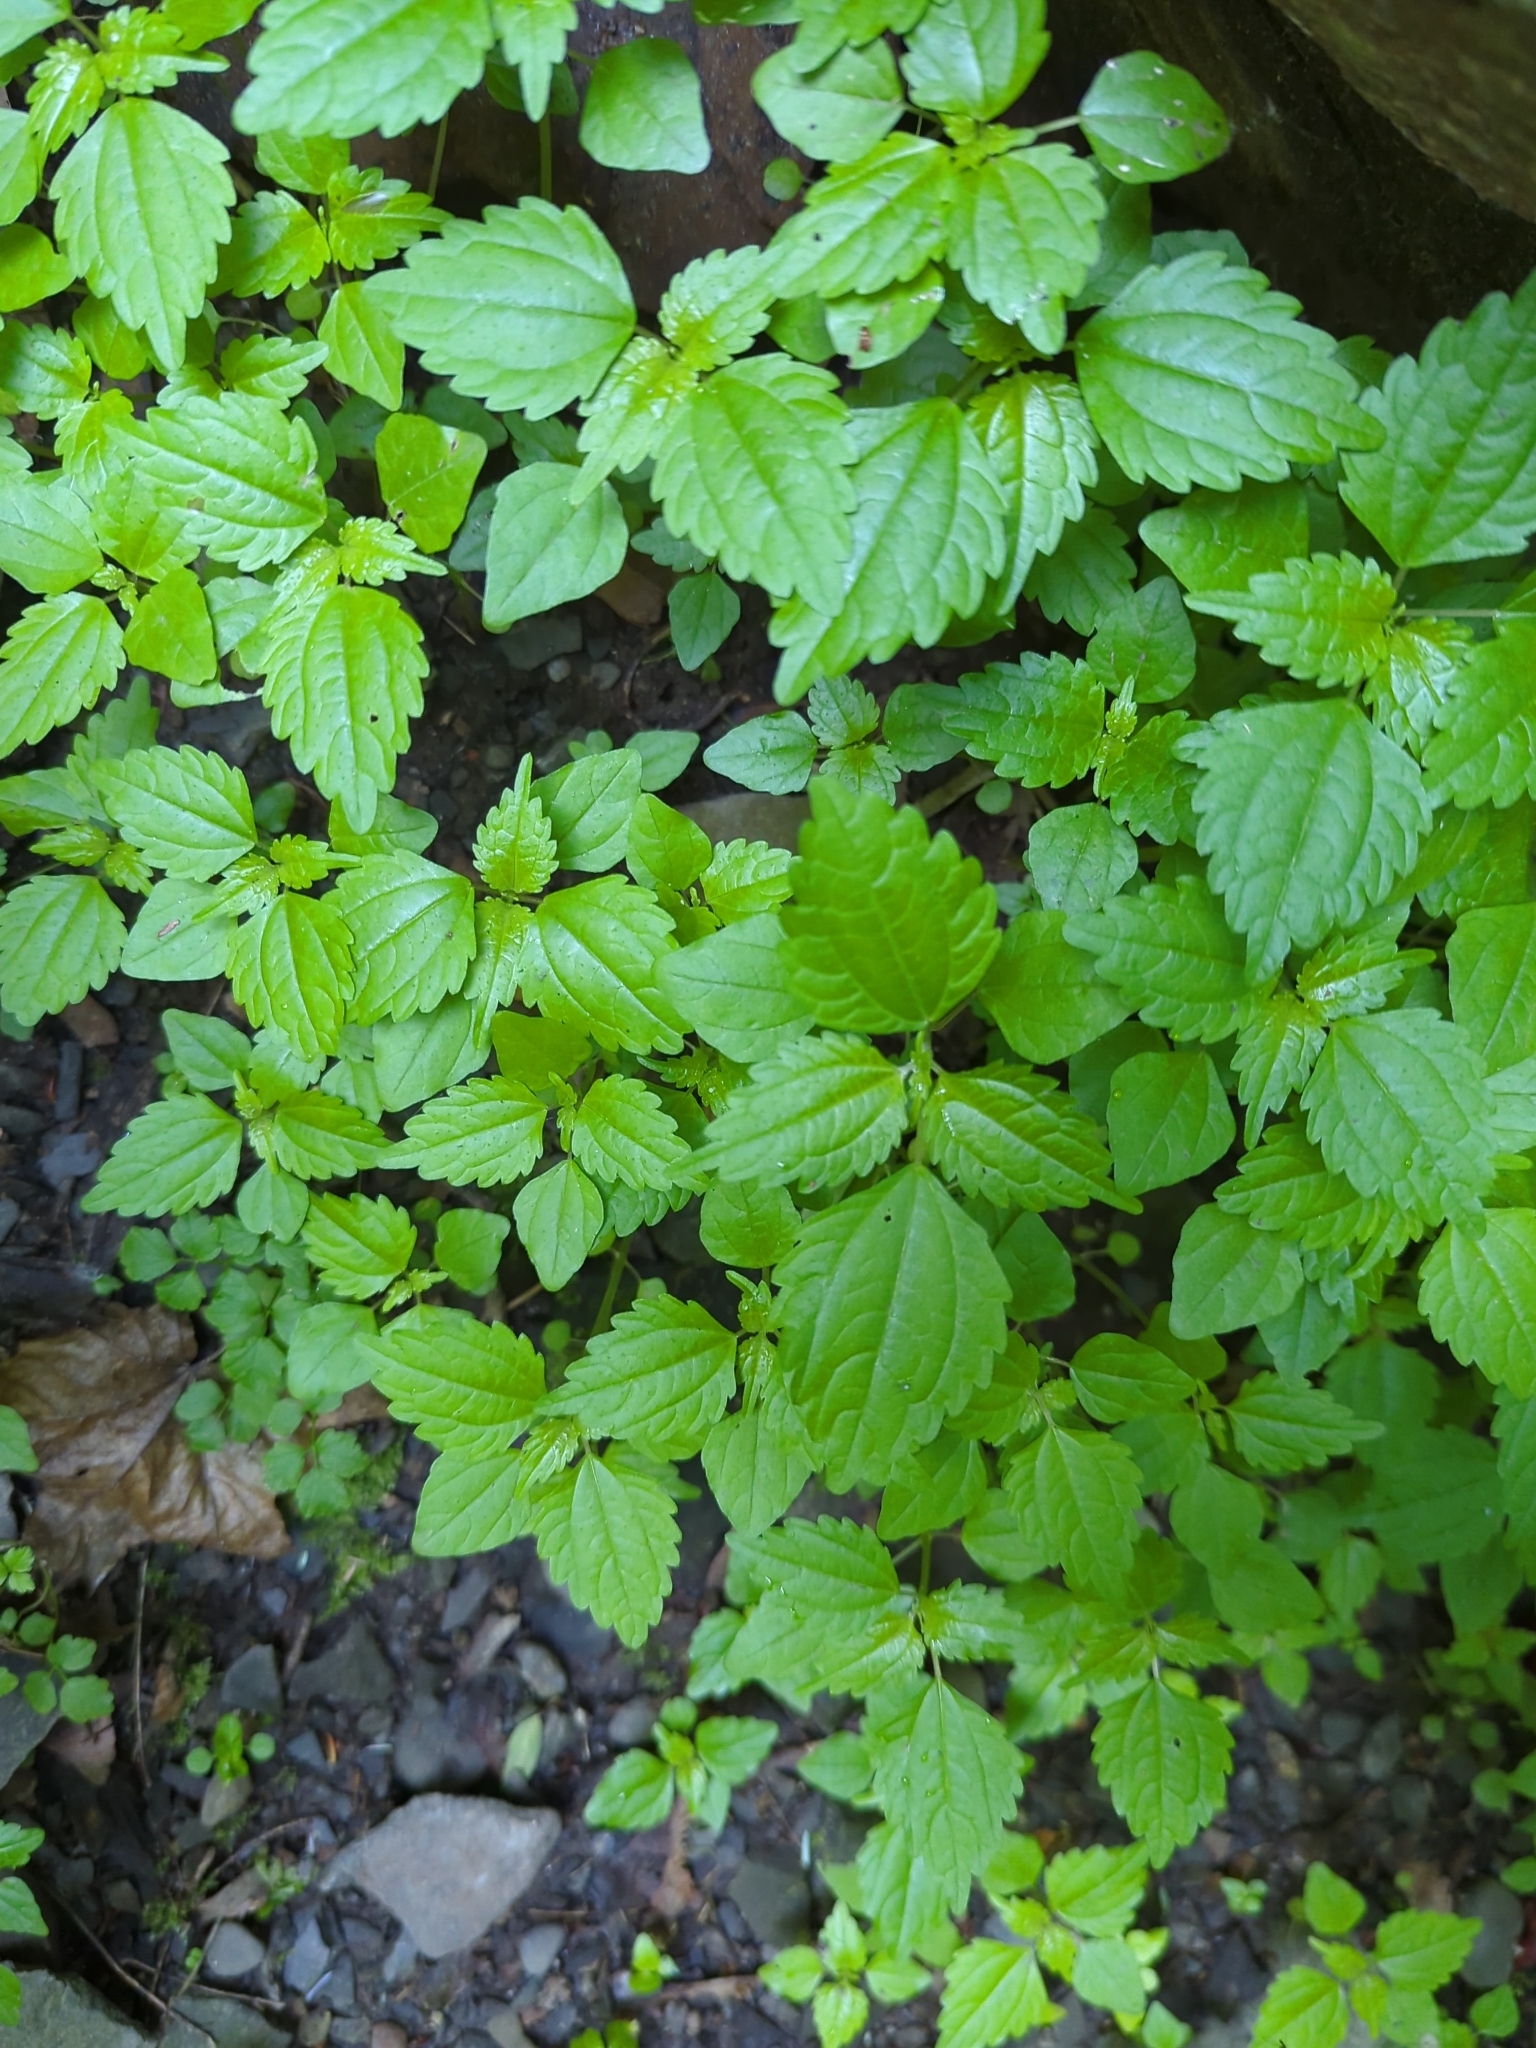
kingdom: Plantae
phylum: Tracheophyta
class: Magnoliopsida
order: Rosales
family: Urticaceae
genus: Pilea
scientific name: Pilea pumila
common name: Clearweed
